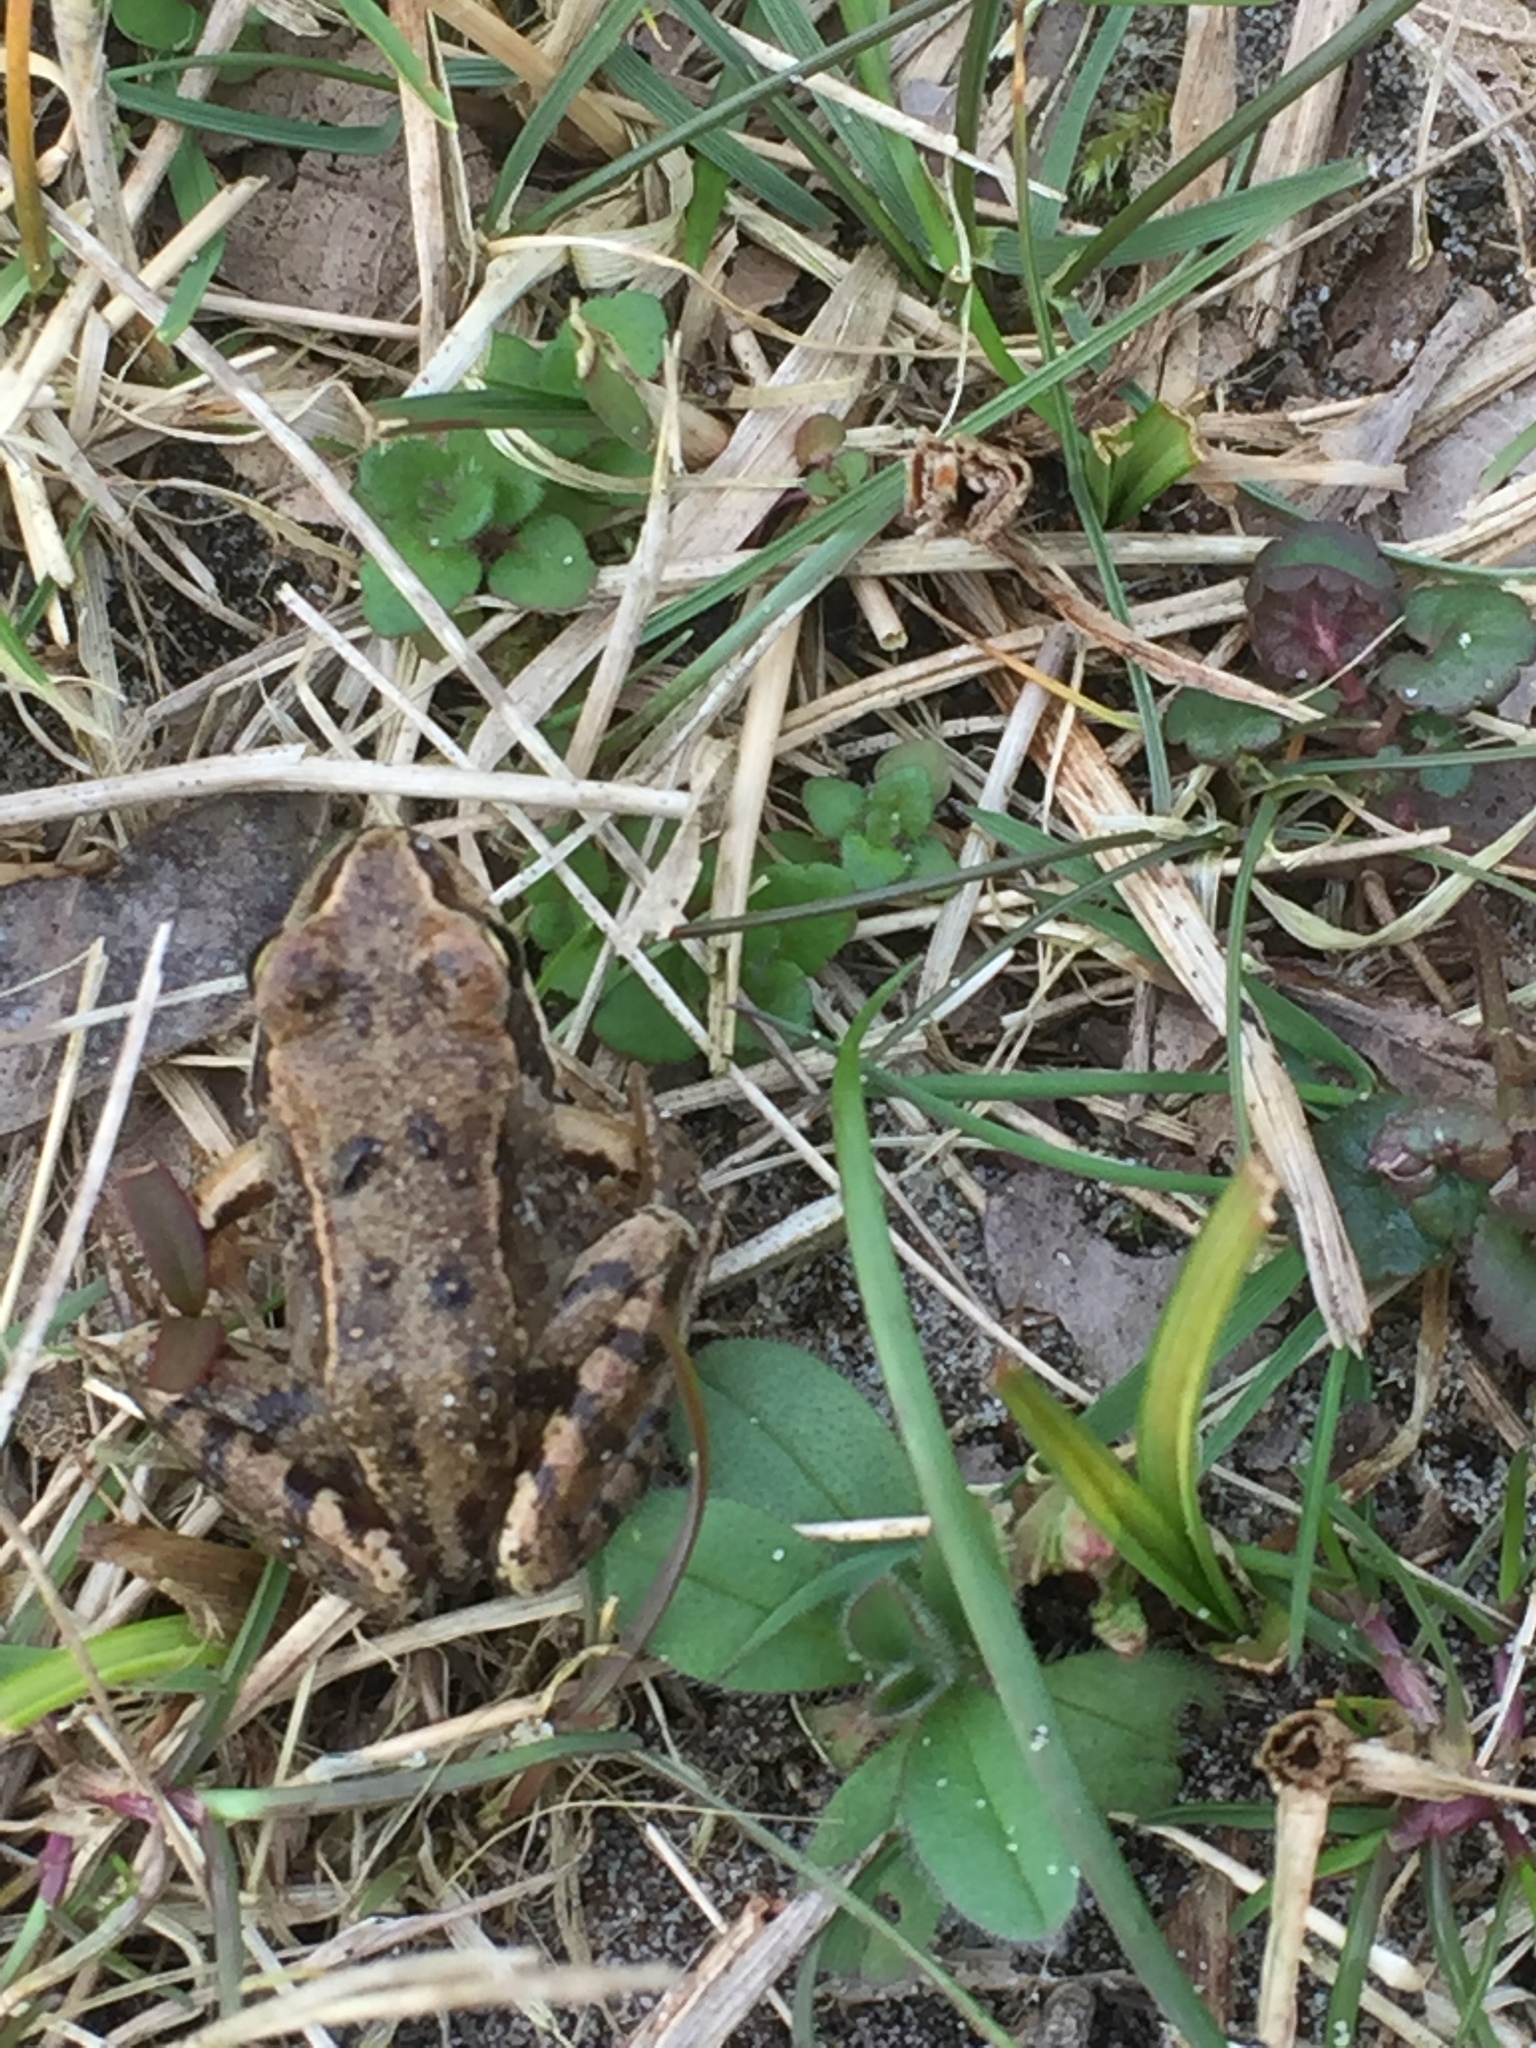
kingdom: Animalia
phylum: Chordata
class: Amphibia
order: Anura
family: Ranidae
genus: Rana
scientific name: Rana temporaria
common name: Common frog
